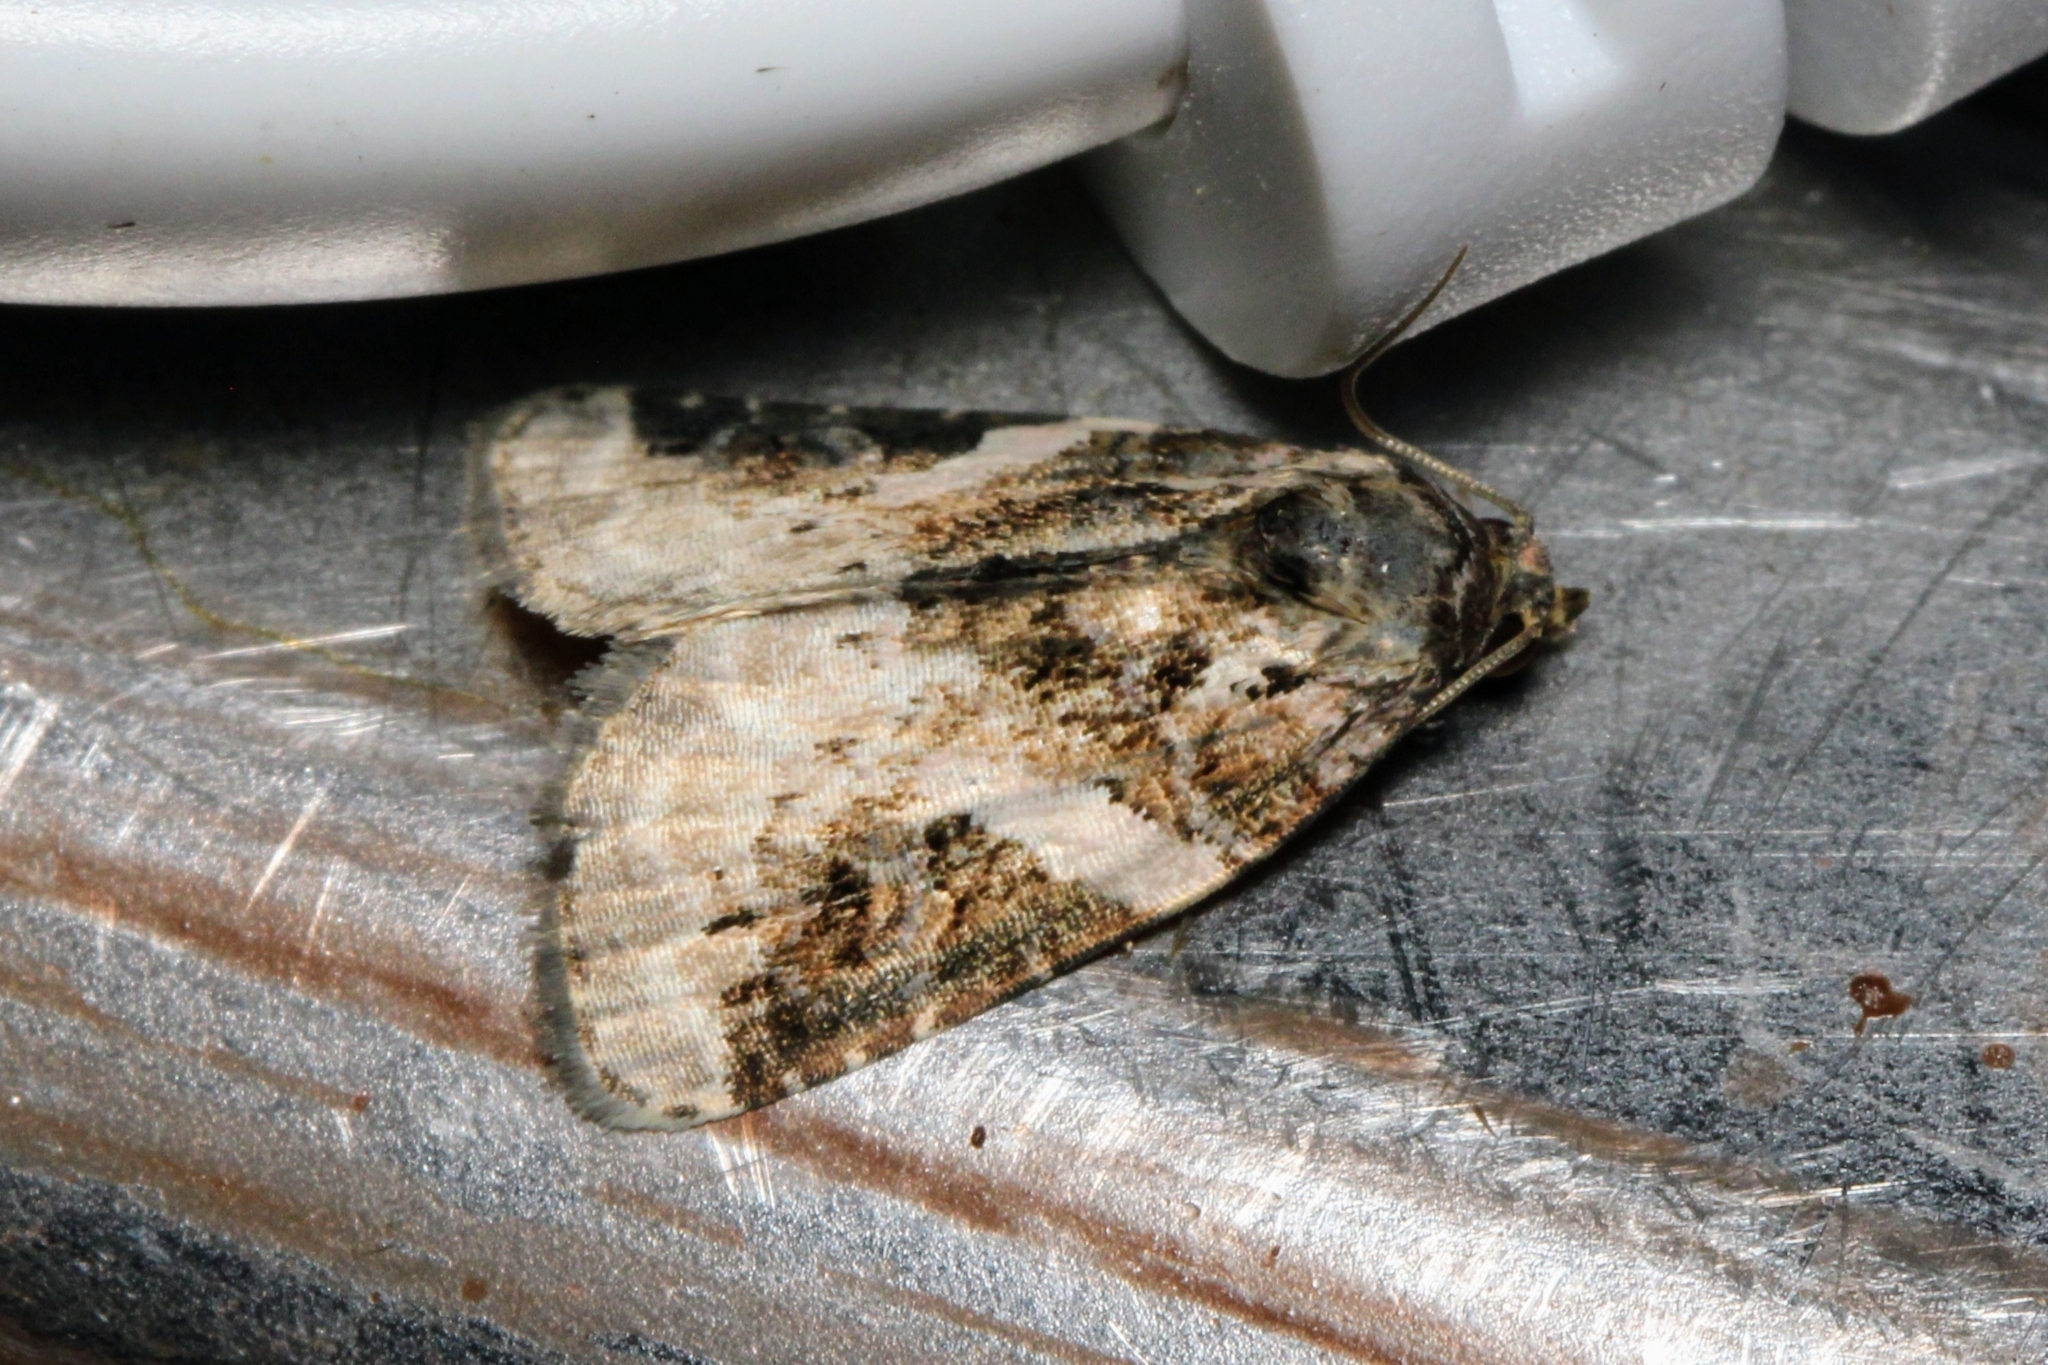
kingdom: Animalia
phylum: Arthropoda
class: Insecta
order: Lepidoptera
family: Noctuidae
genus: Pseudeustrotia
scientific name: Pseudeustrotia carneola
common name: Pink-barred lithacodia moth
